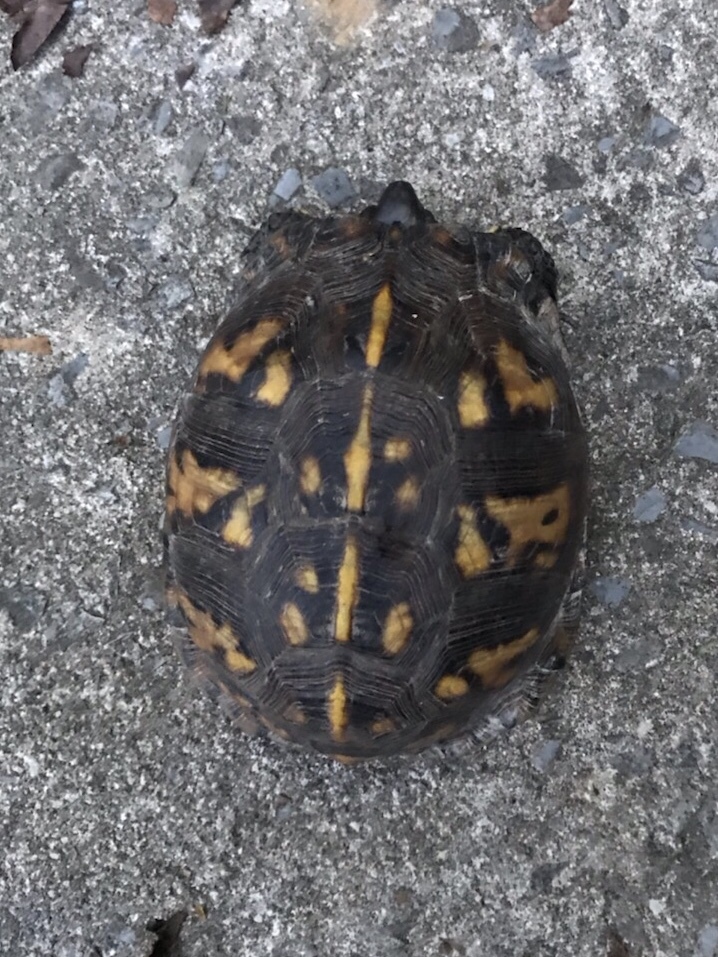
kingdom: Animalia
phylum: Chordata
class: Testudines
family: Emydidae
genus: Terrapene
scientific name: Terrapene carolina
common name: Common box turtle
